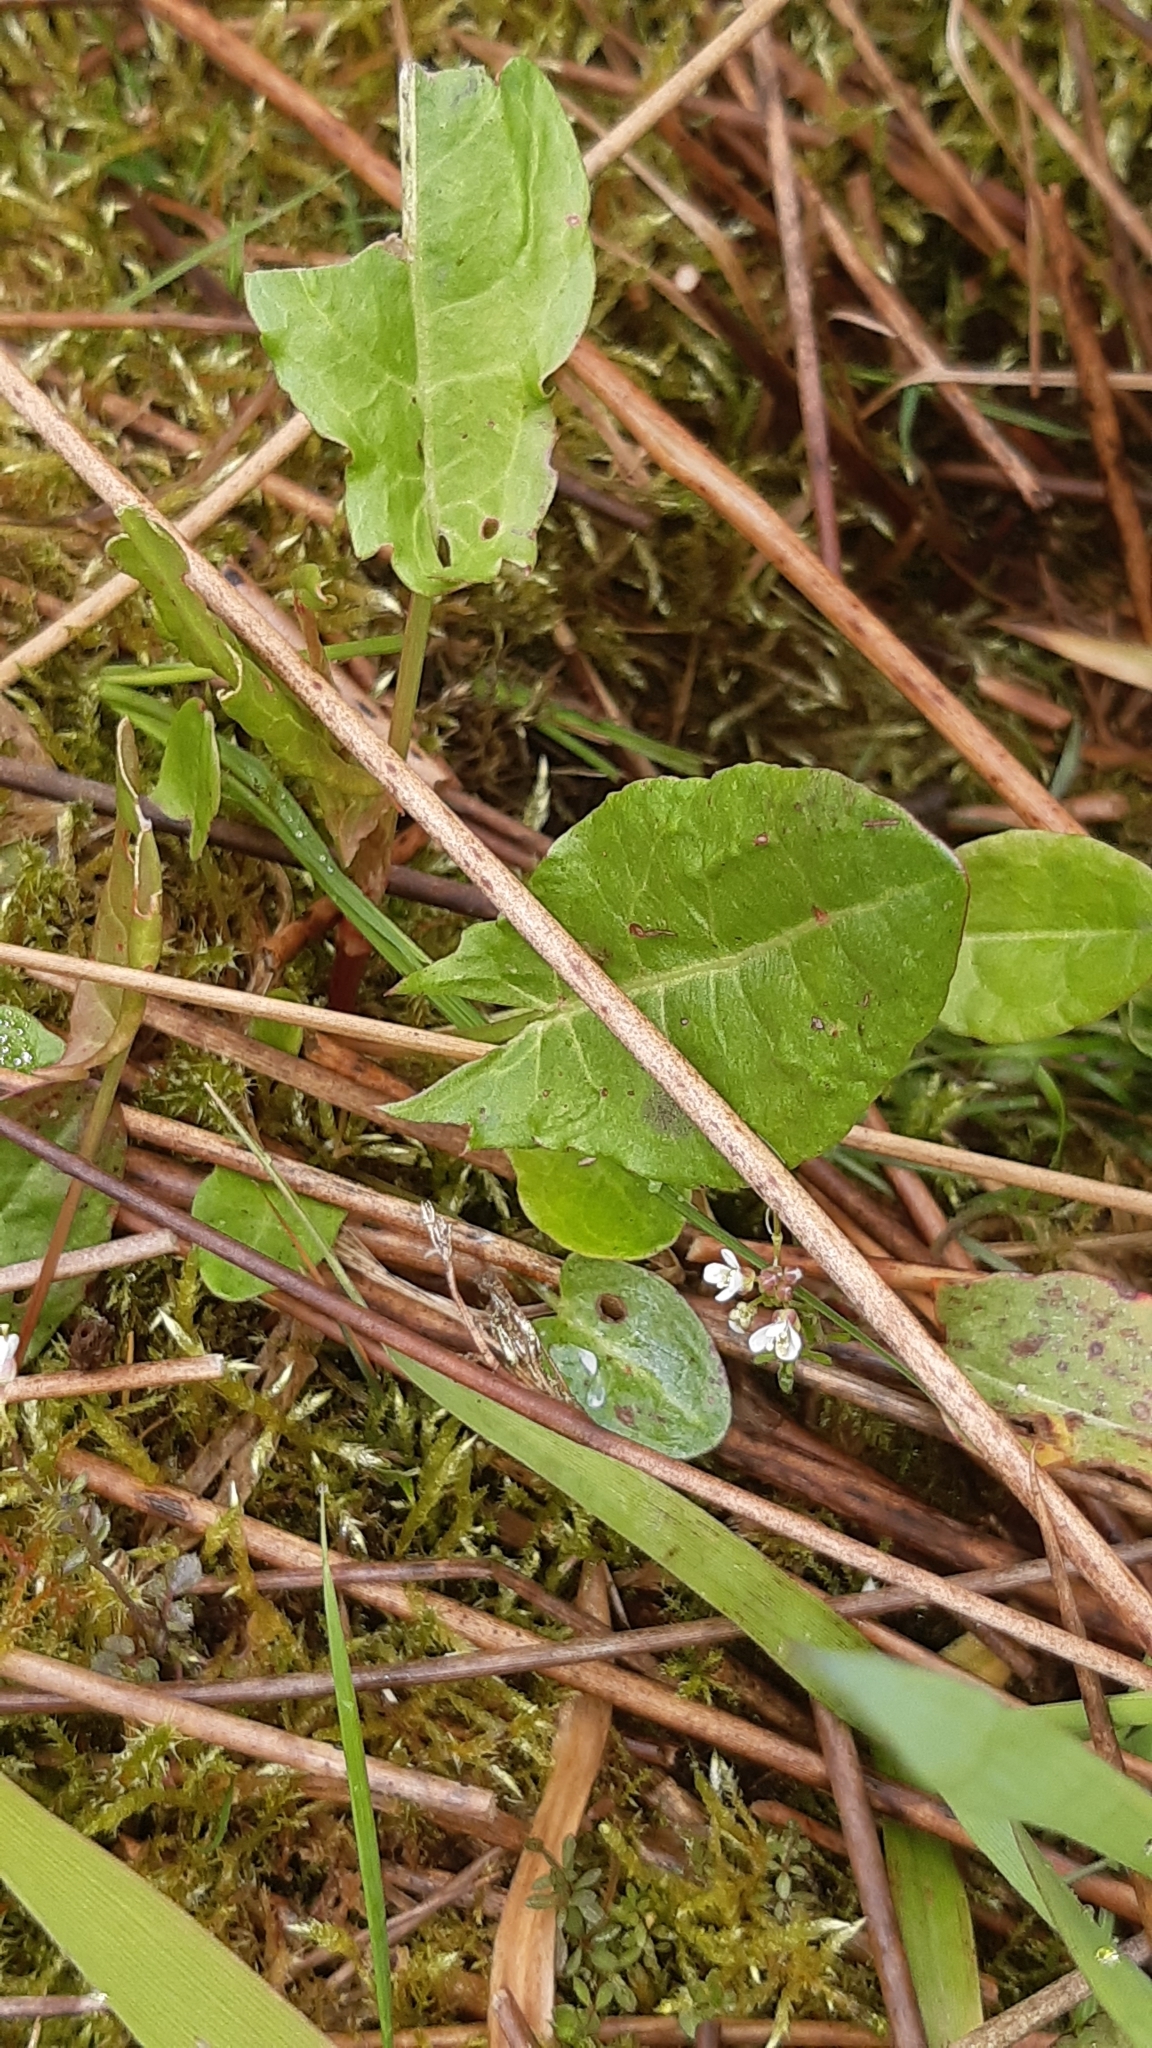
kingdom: Plantae
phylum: Tracheophyta
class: Magnoliopsida
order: Caryophyllales
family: Polygonaceae
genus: Rumex
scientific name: Rumex acetosa
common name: Garden sorrel
